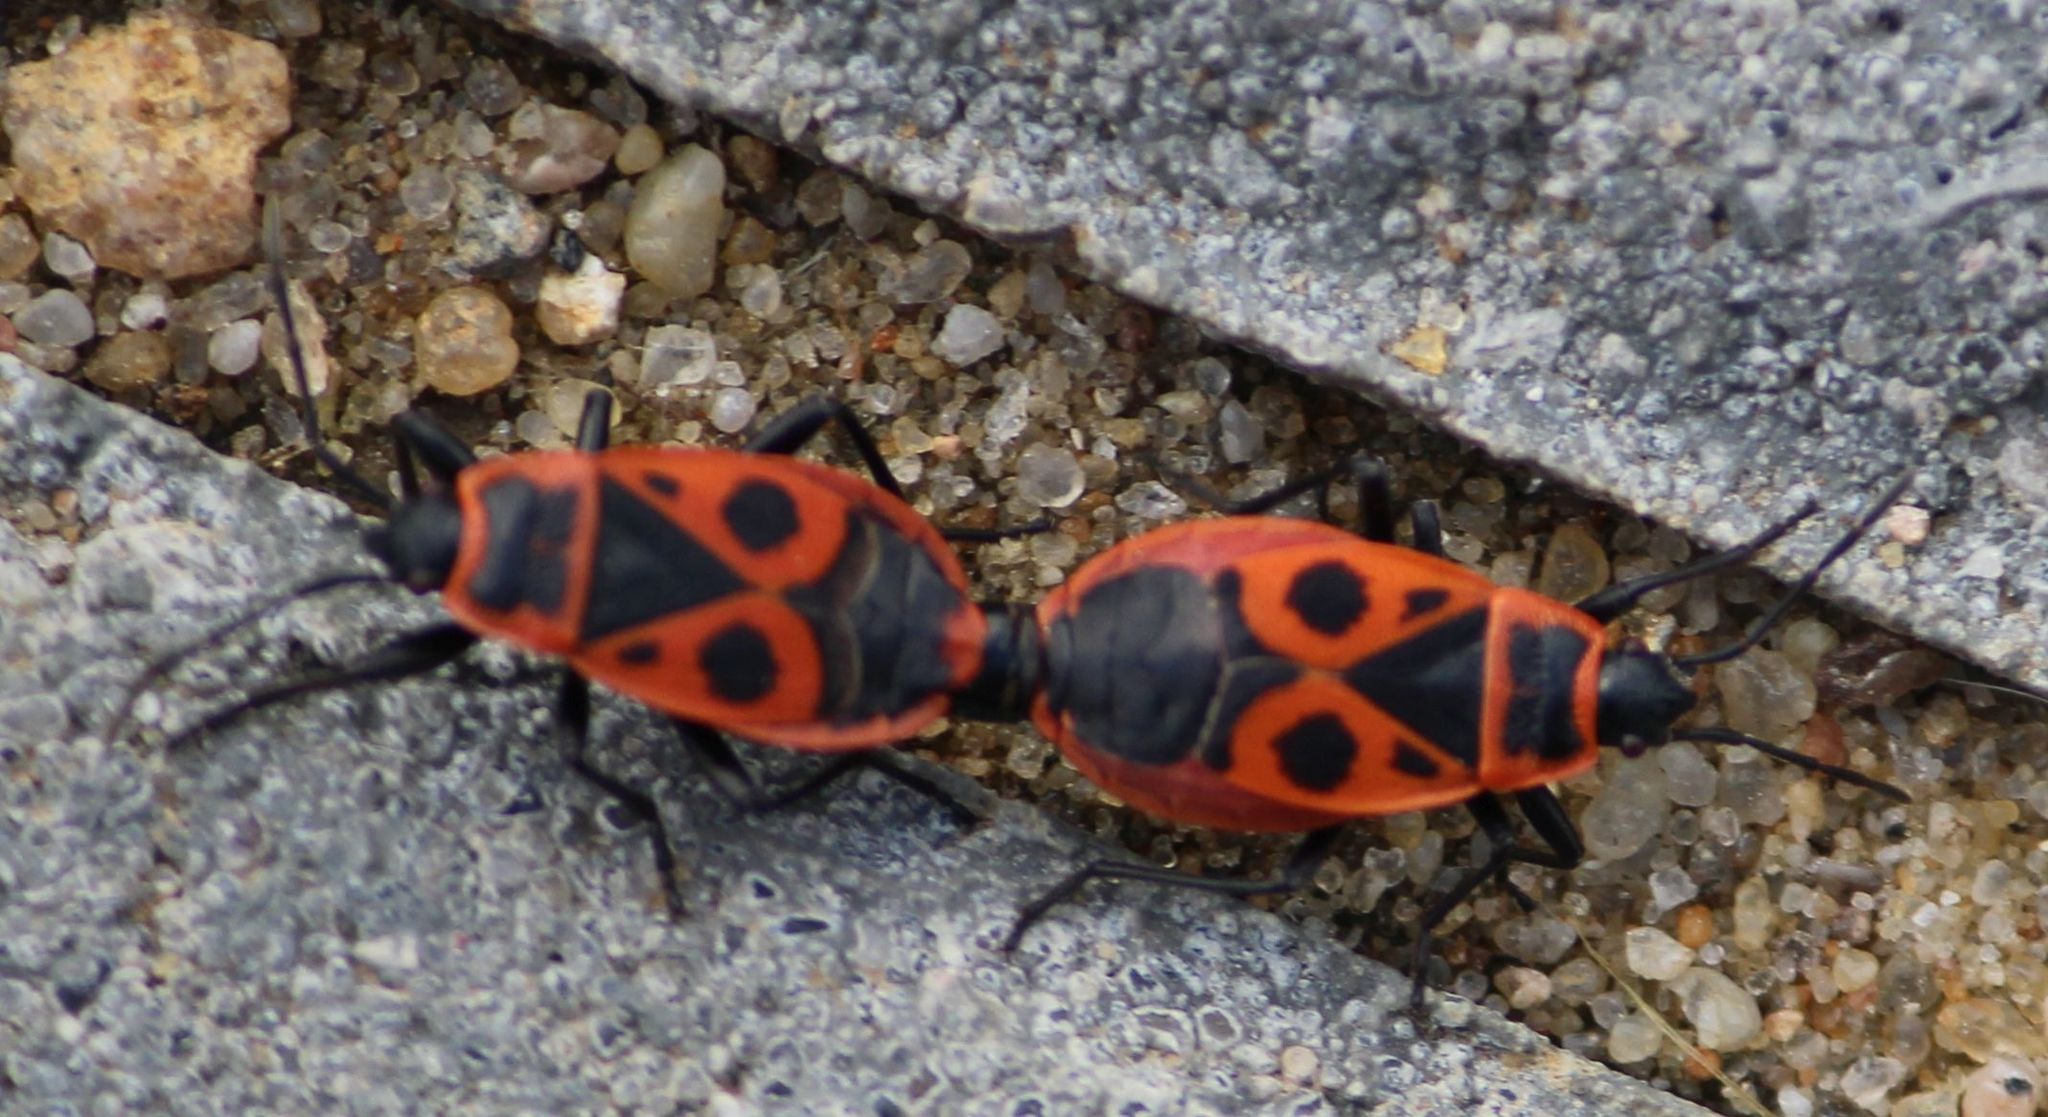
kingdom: Animalia
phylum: Arthropoda
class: Insecta
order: Hemiptera
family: Pyrrhocoridae
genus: Pyrrhocoris
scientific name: Pyrrhocoris apterus
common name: Firebug
